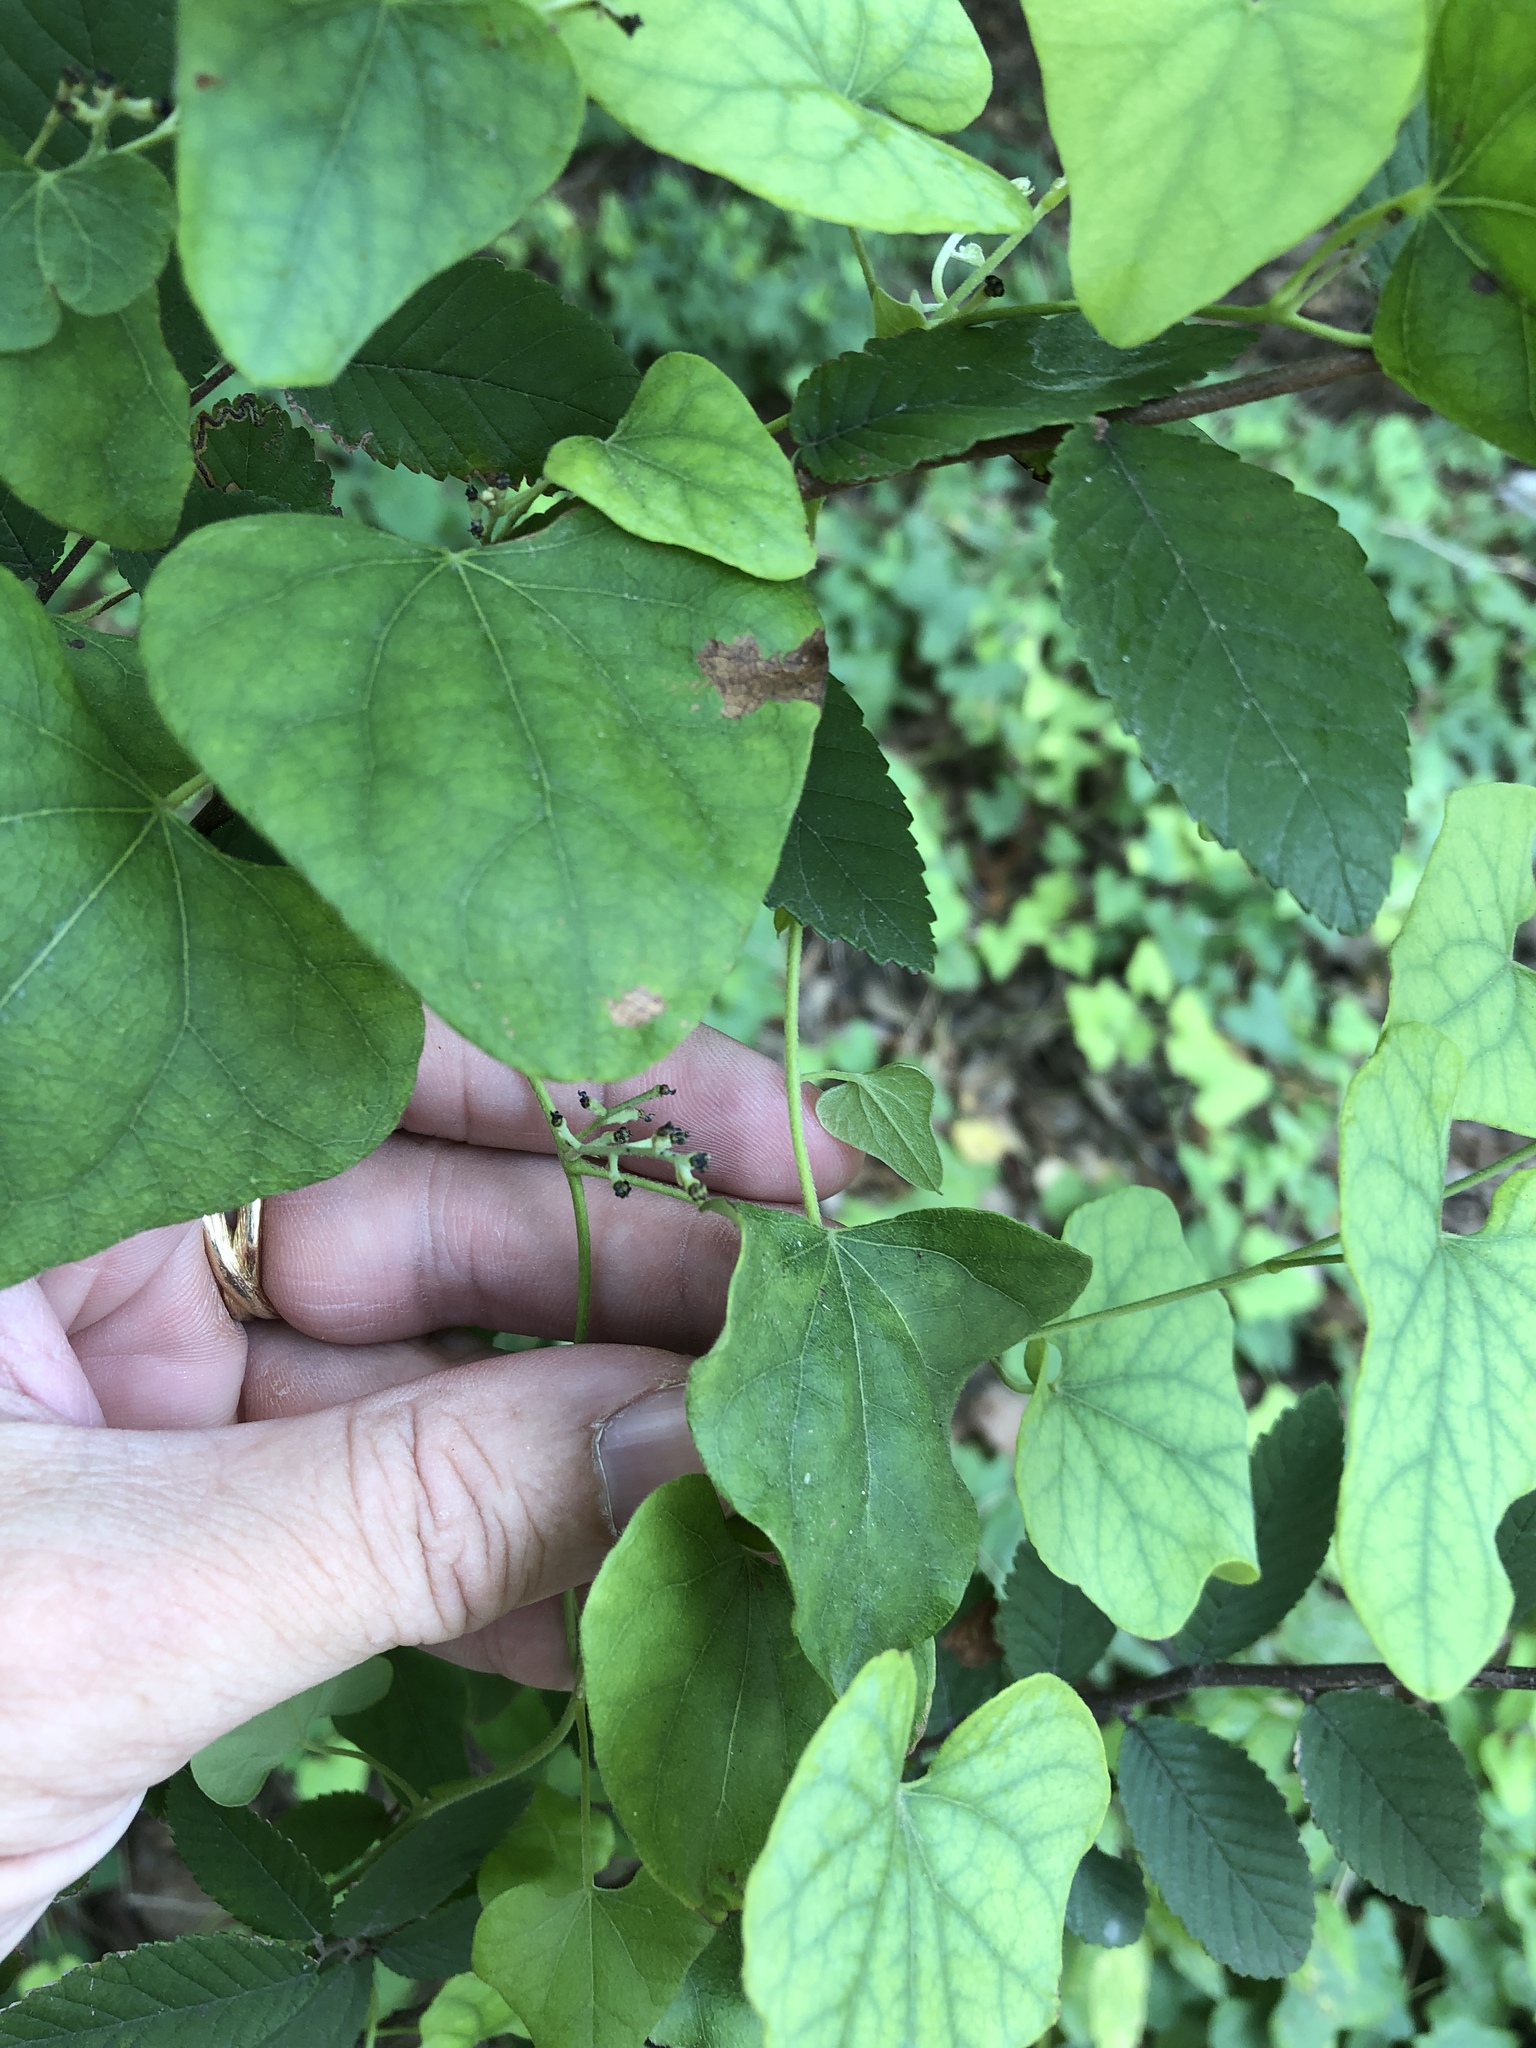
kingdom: Plantae
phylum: Tracheophyta
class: Magnoliopsida
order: Ranunculales
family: Menispermaceae
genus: Cocculus
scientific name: Cocculus carolinus
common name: Carolina moonseed
